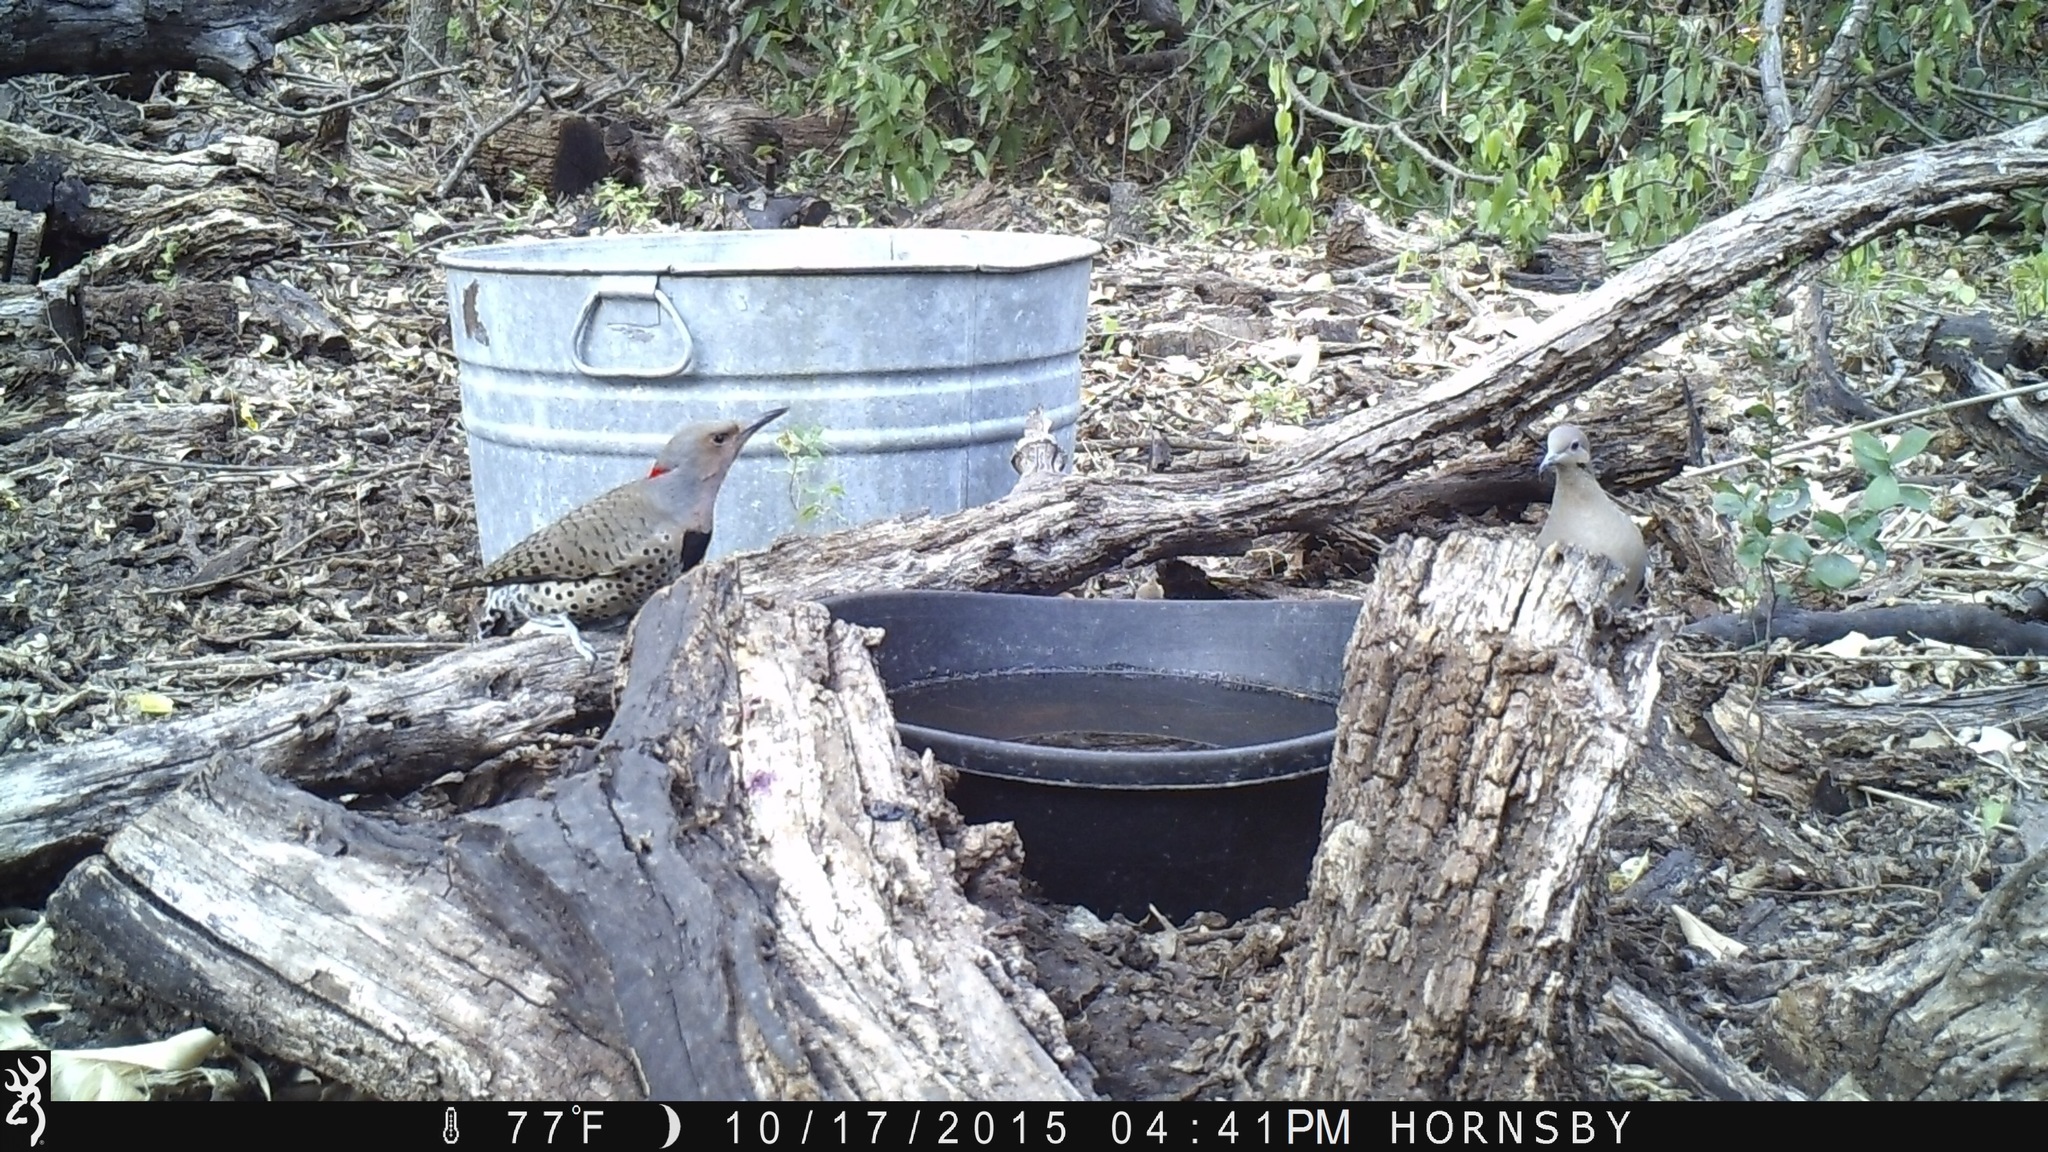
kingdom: Animalia
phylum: Chordata
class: Aves
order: Piciformes
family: Picidae
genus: Colaptes
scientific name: Colaptes auratus
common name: Northern flicker
